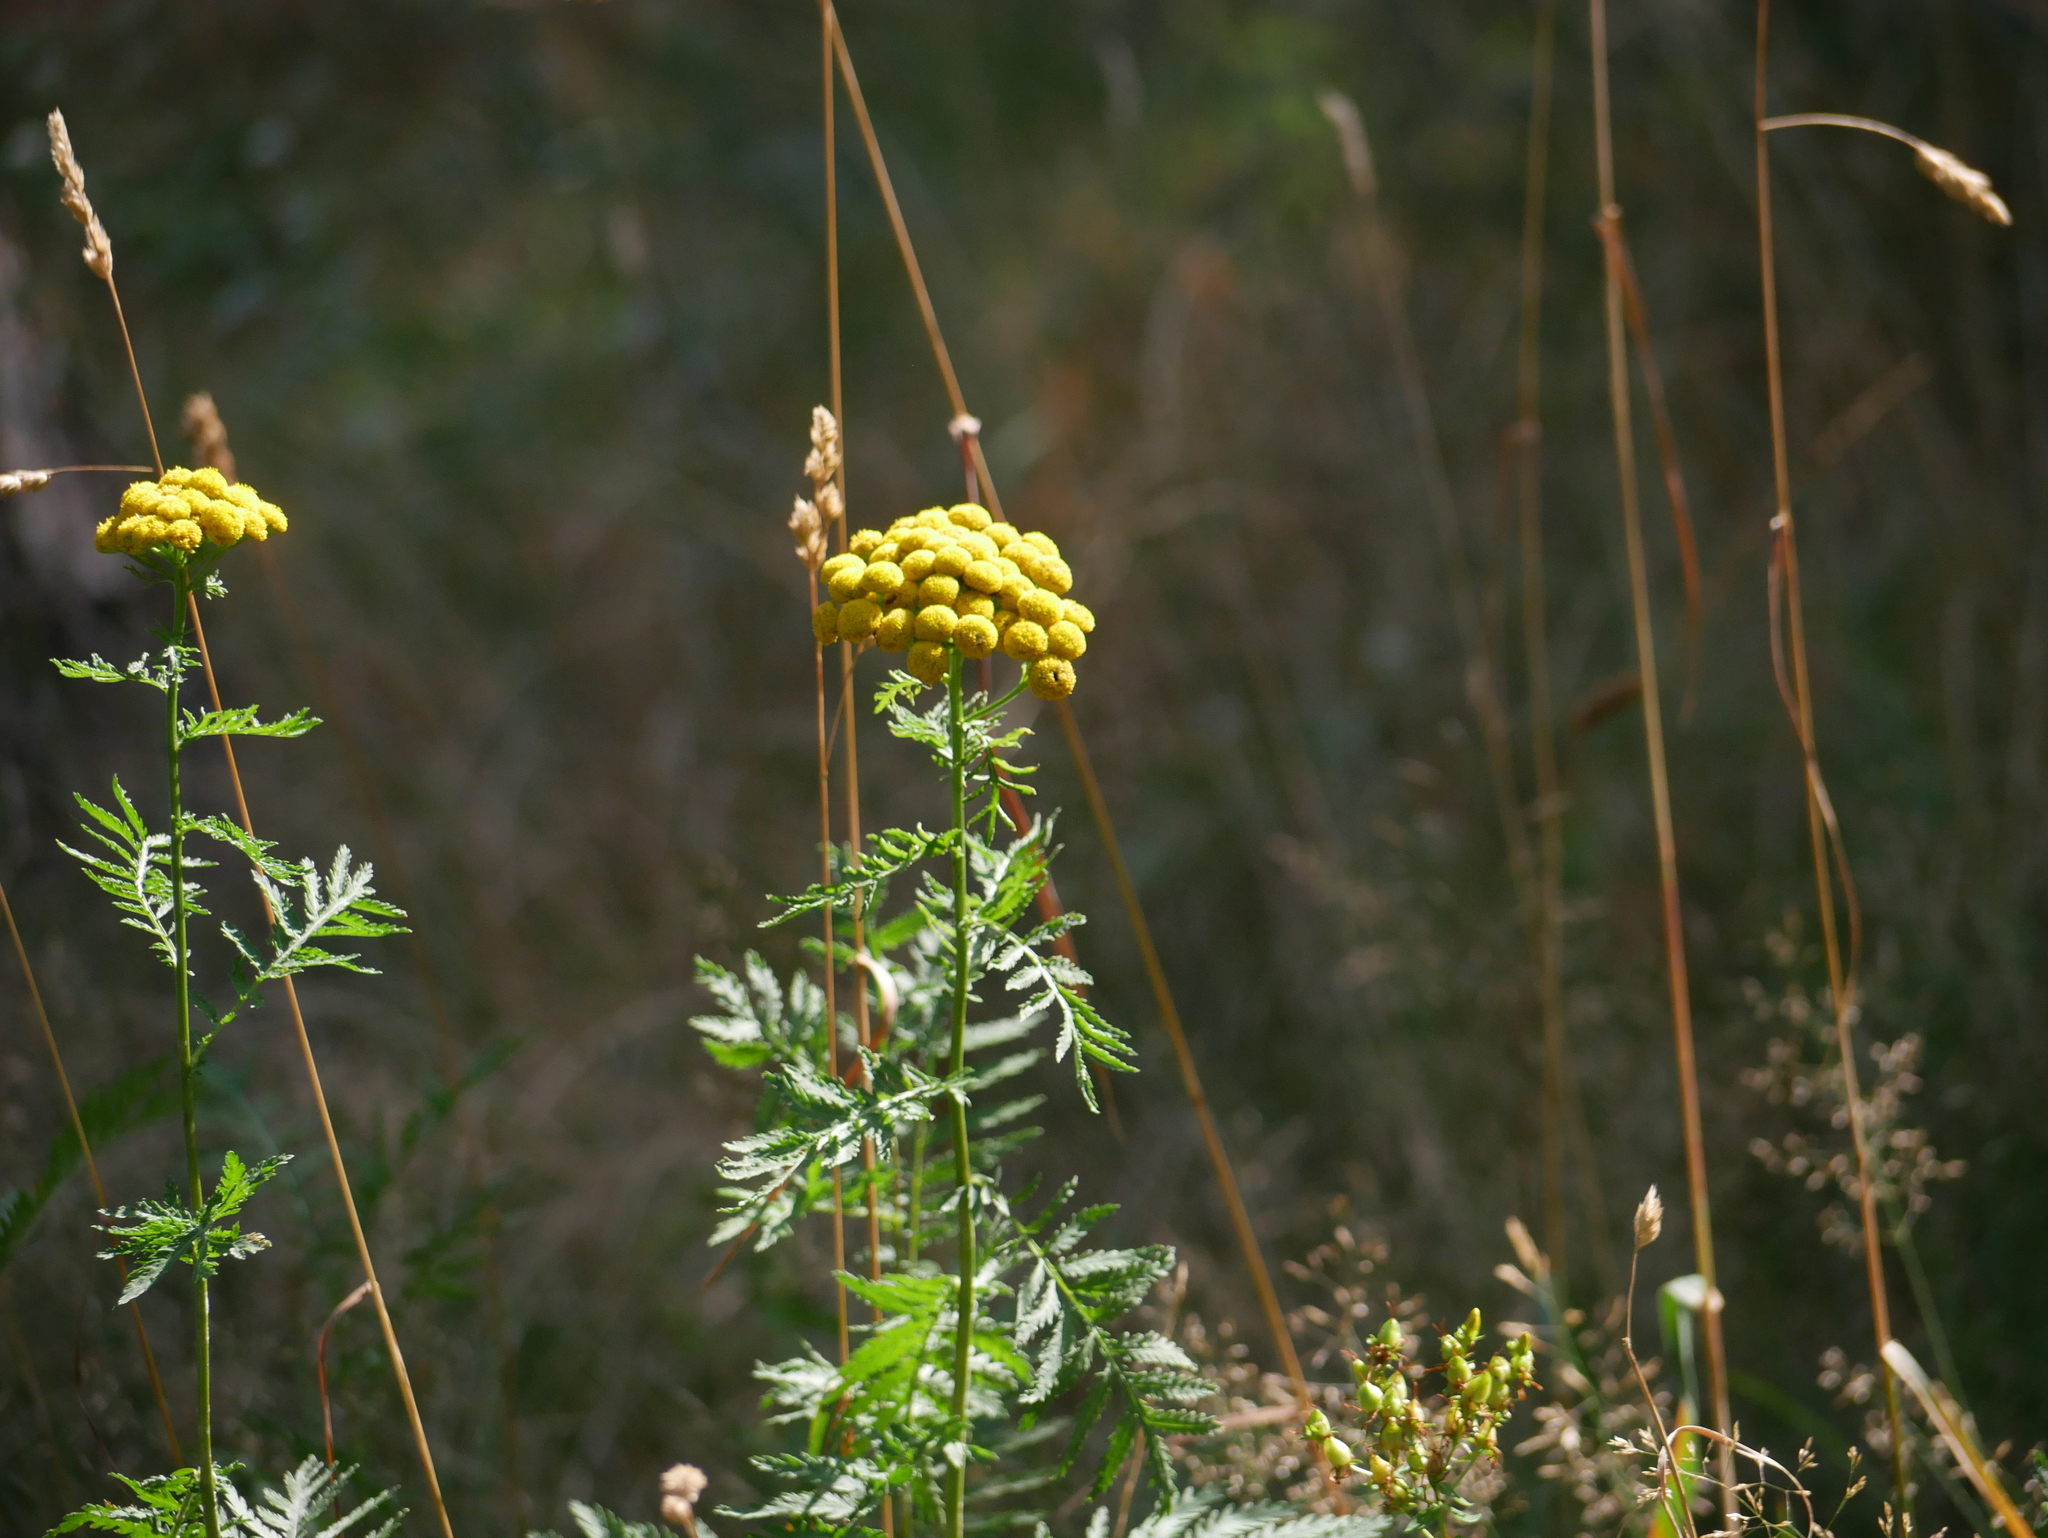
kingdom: Plantae
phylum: Tracheophyta
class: Magnoliopsida
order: Asterales
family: Asteraceae
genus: Tanacetum
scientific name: Tanacetum vulgare
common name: Common tansy
